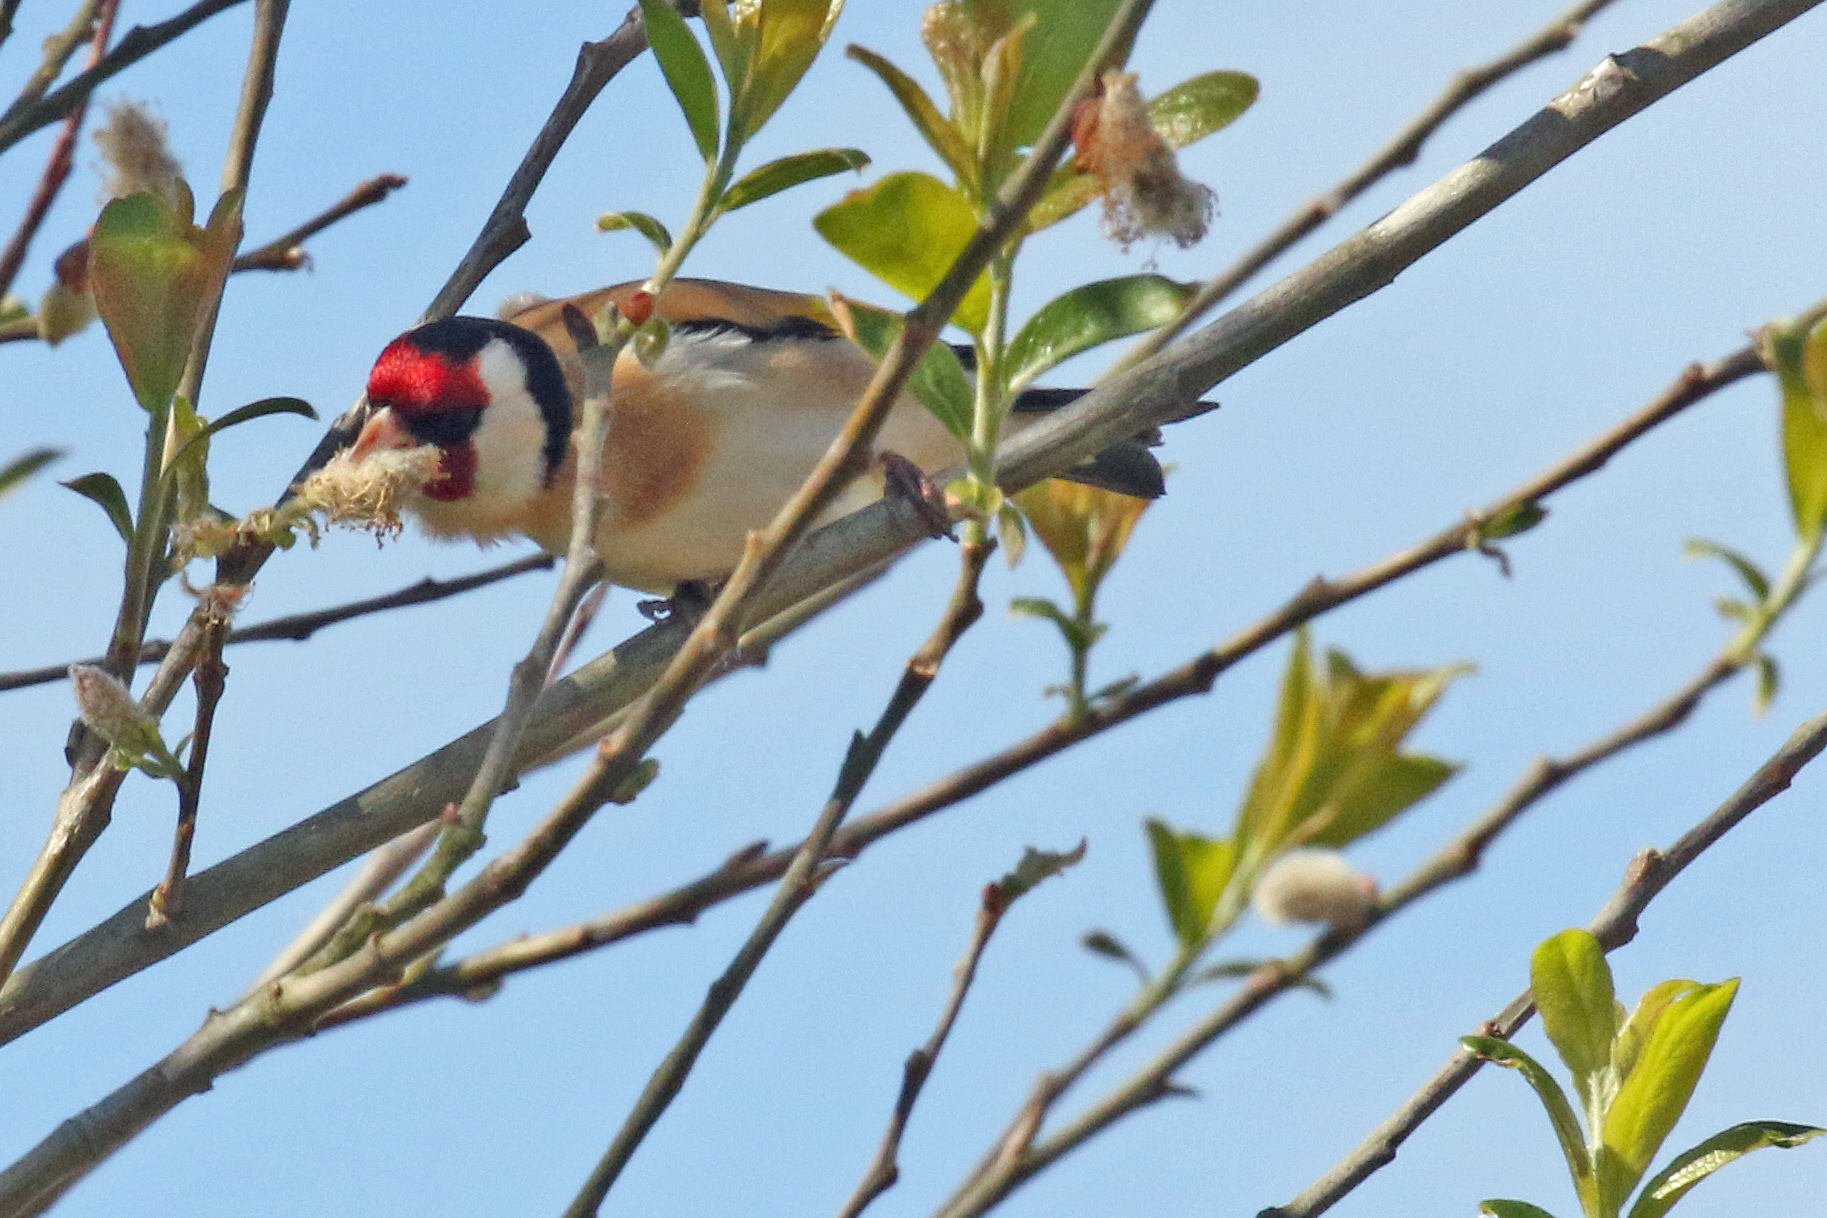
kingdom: Animalia
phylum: Chordata
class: Aves
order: Passeriformes
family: Fringillidae
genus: Carduelis
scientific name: Carduelis carduelis
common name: European goldfinch
